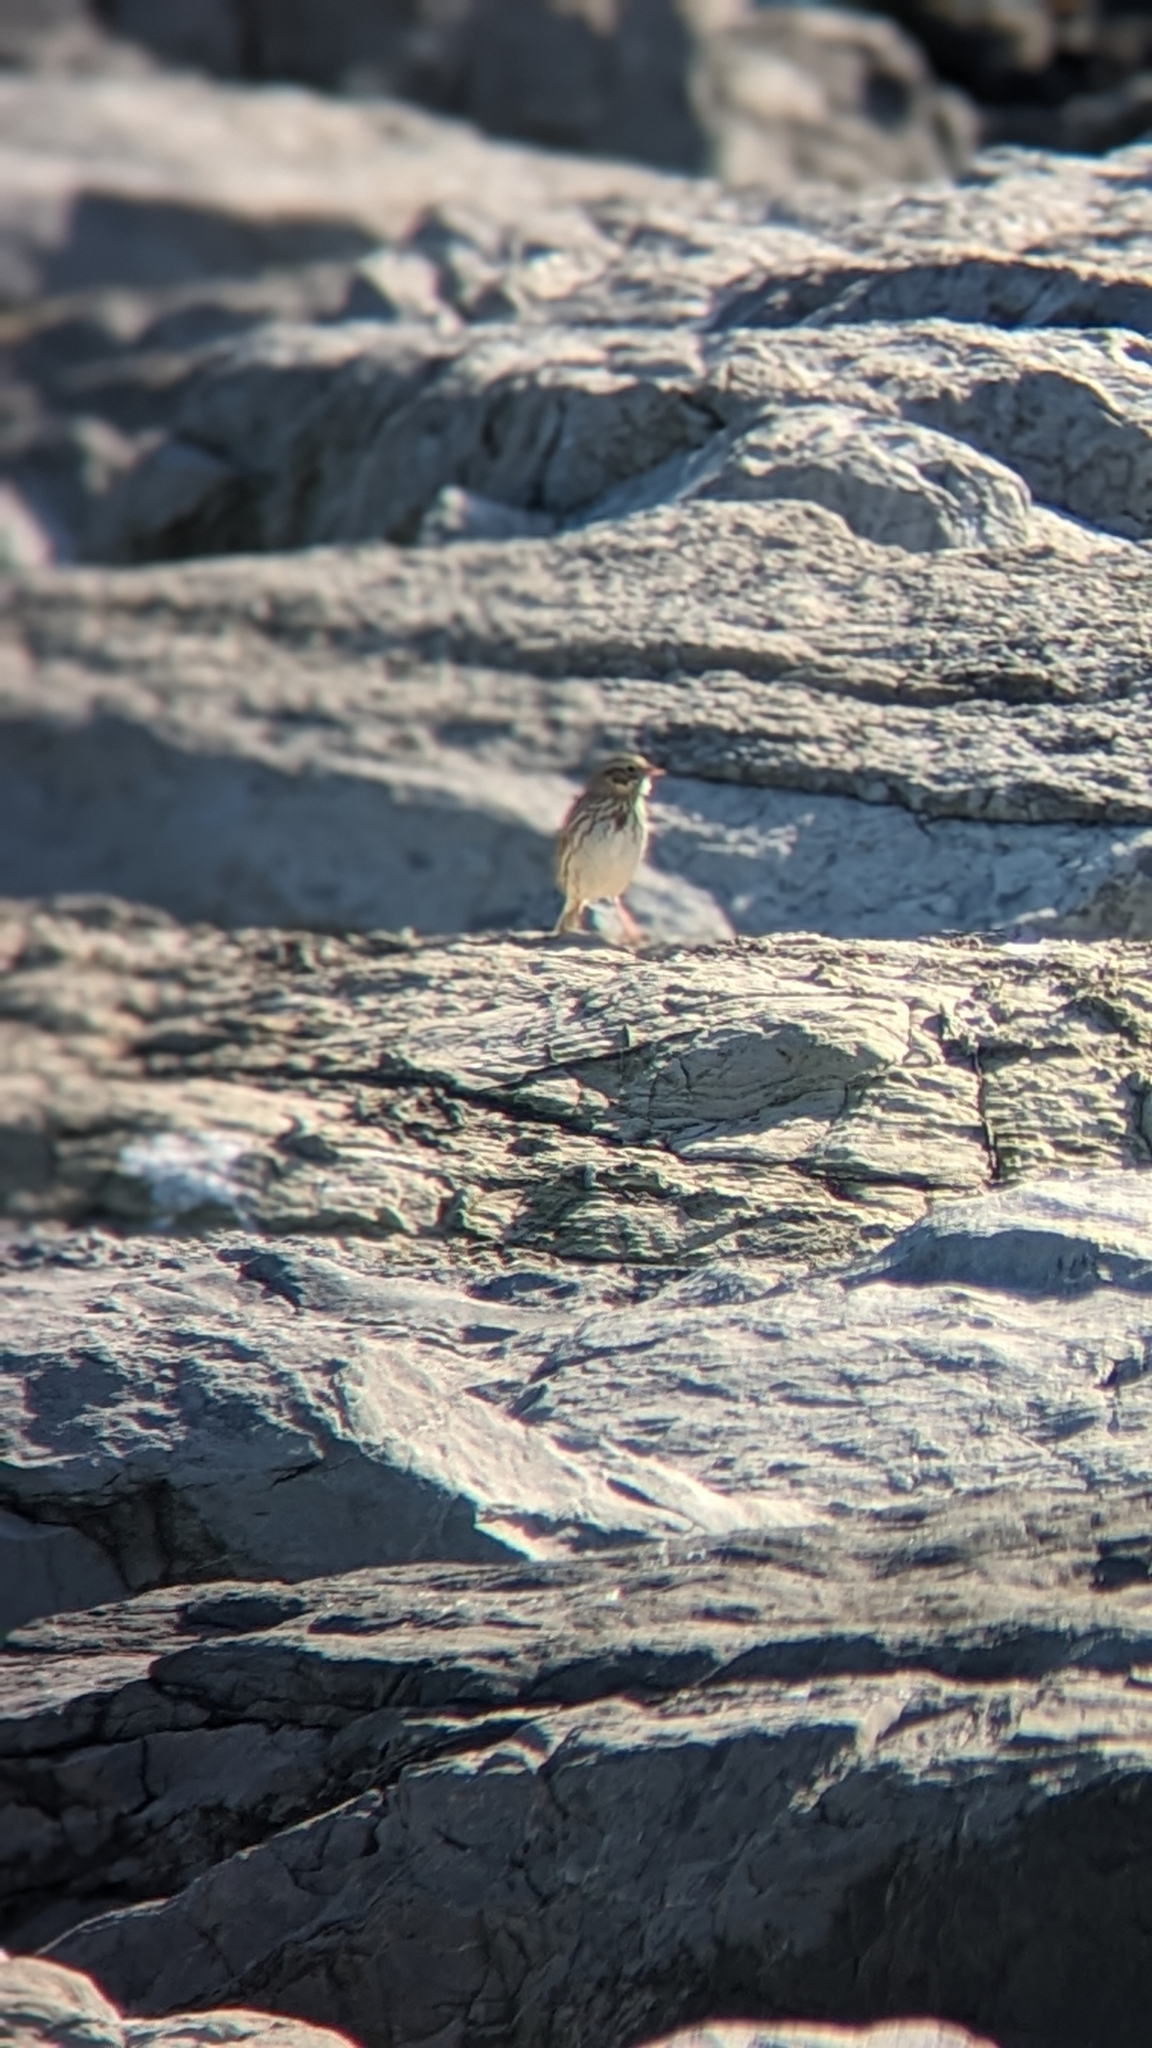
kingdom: Animalia
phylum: Chordata
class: Aves
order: Passeriformes
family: Passerellidae
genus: Passerculus
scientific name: Passerculus sandwichensis
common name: Savannah sparrow
